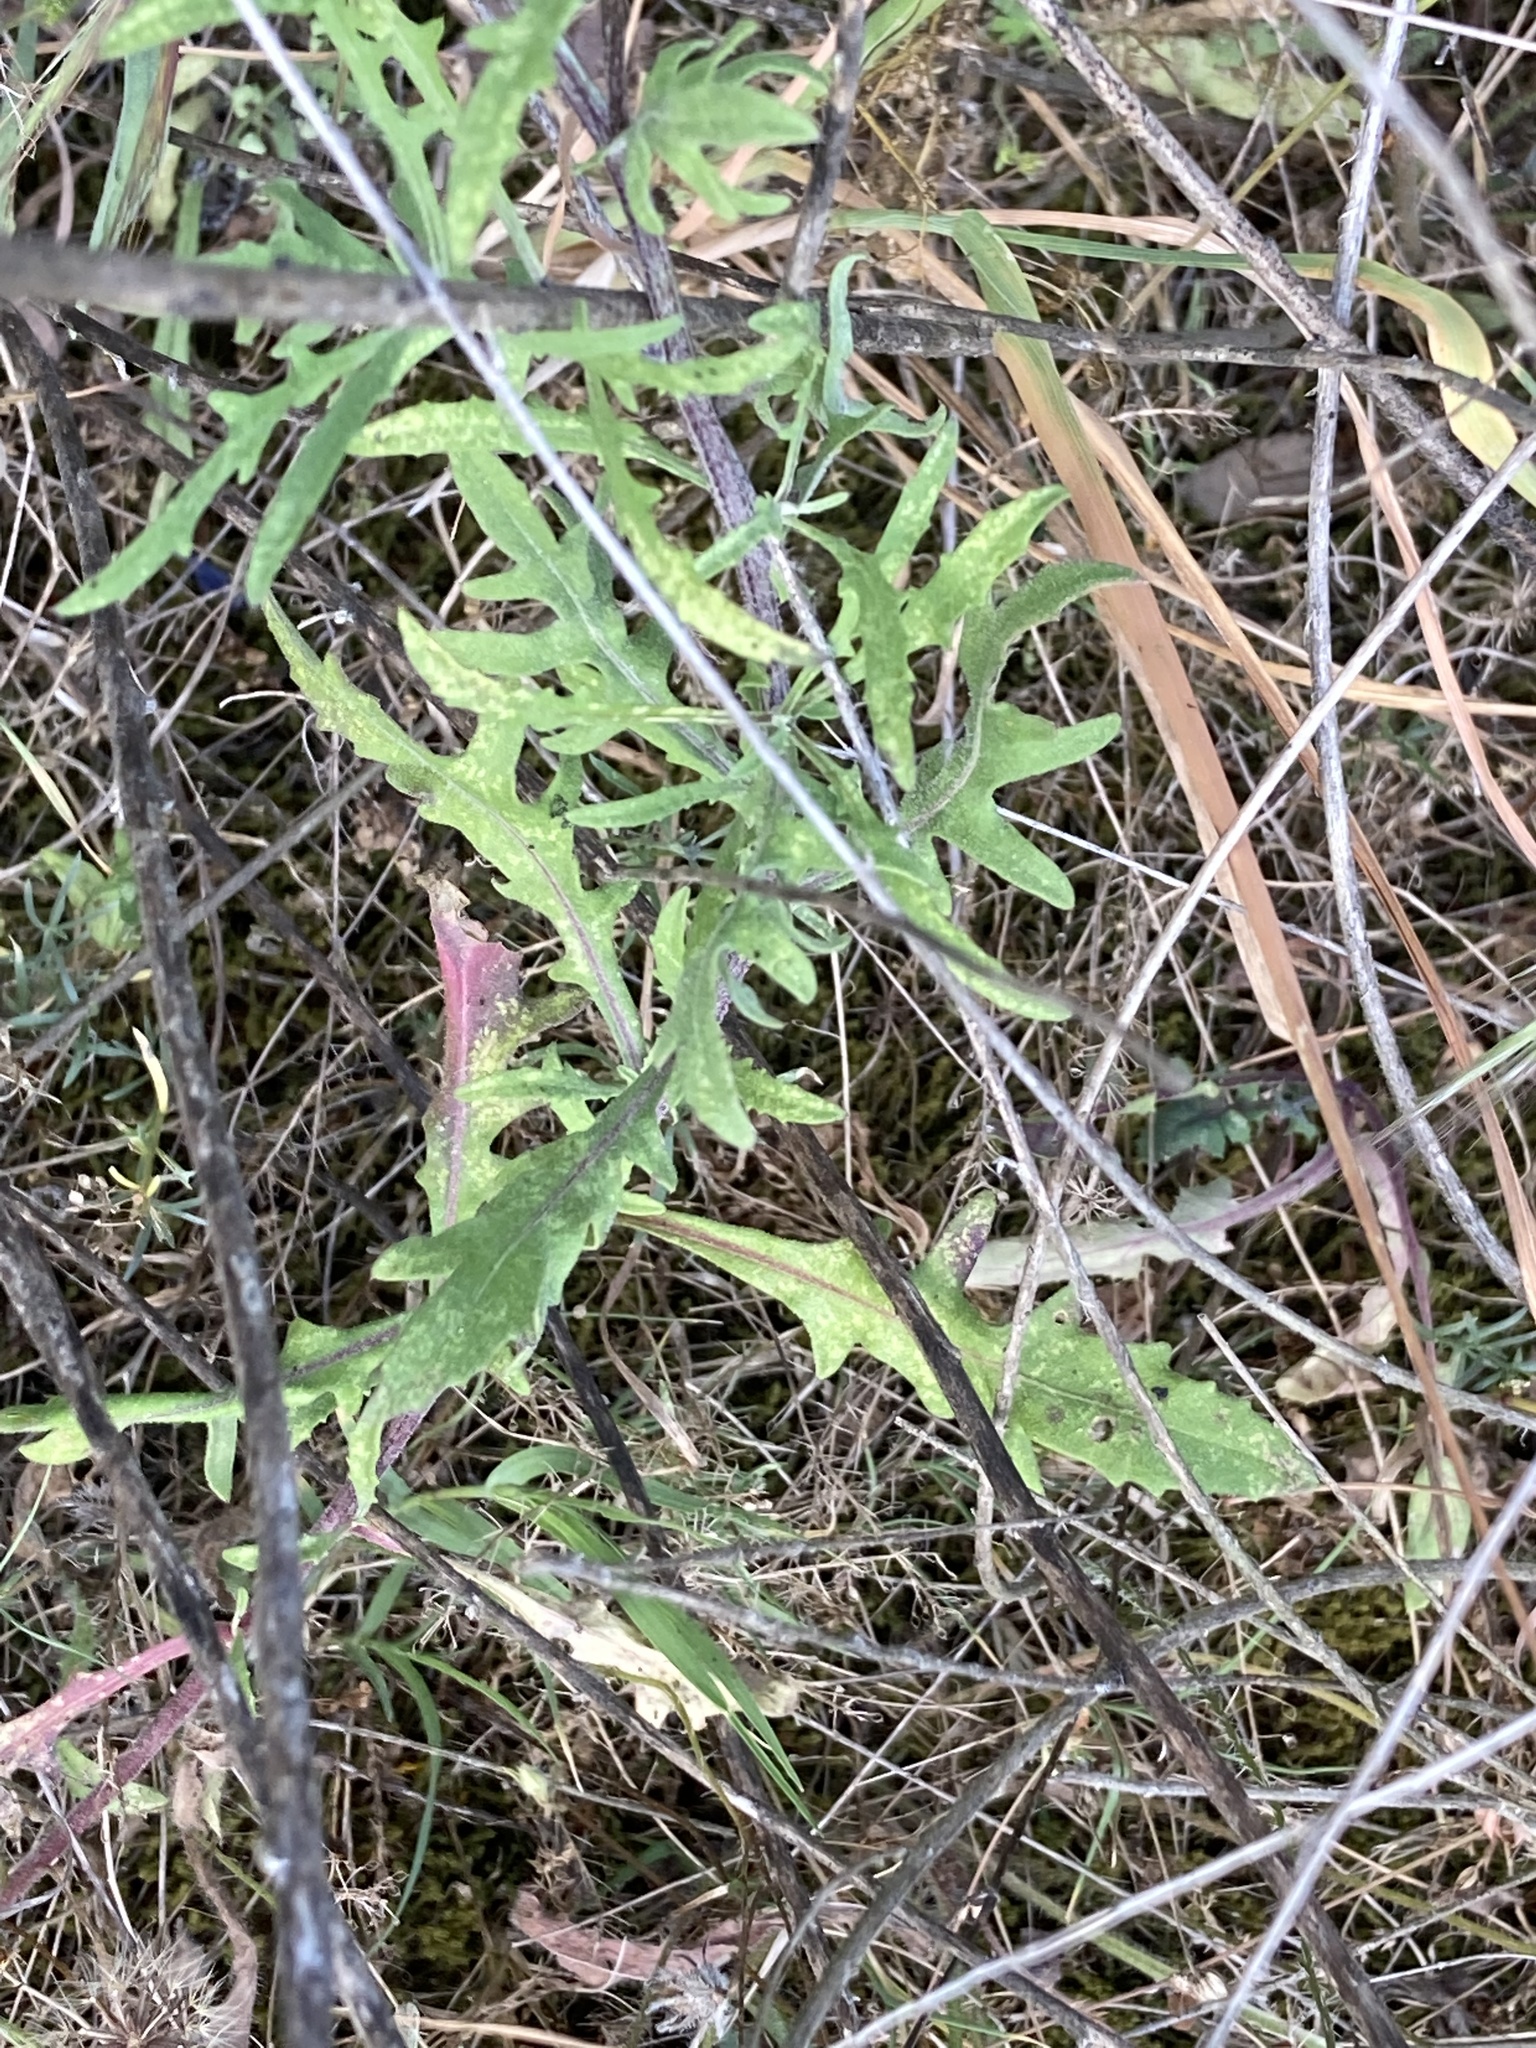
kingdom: Plantae
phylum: Tracheophyta
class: Magnoliopsida
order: Asterales
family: Asteraceae
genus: Centaurea
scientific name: Centaurea aspera
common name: Rough star-thistle
